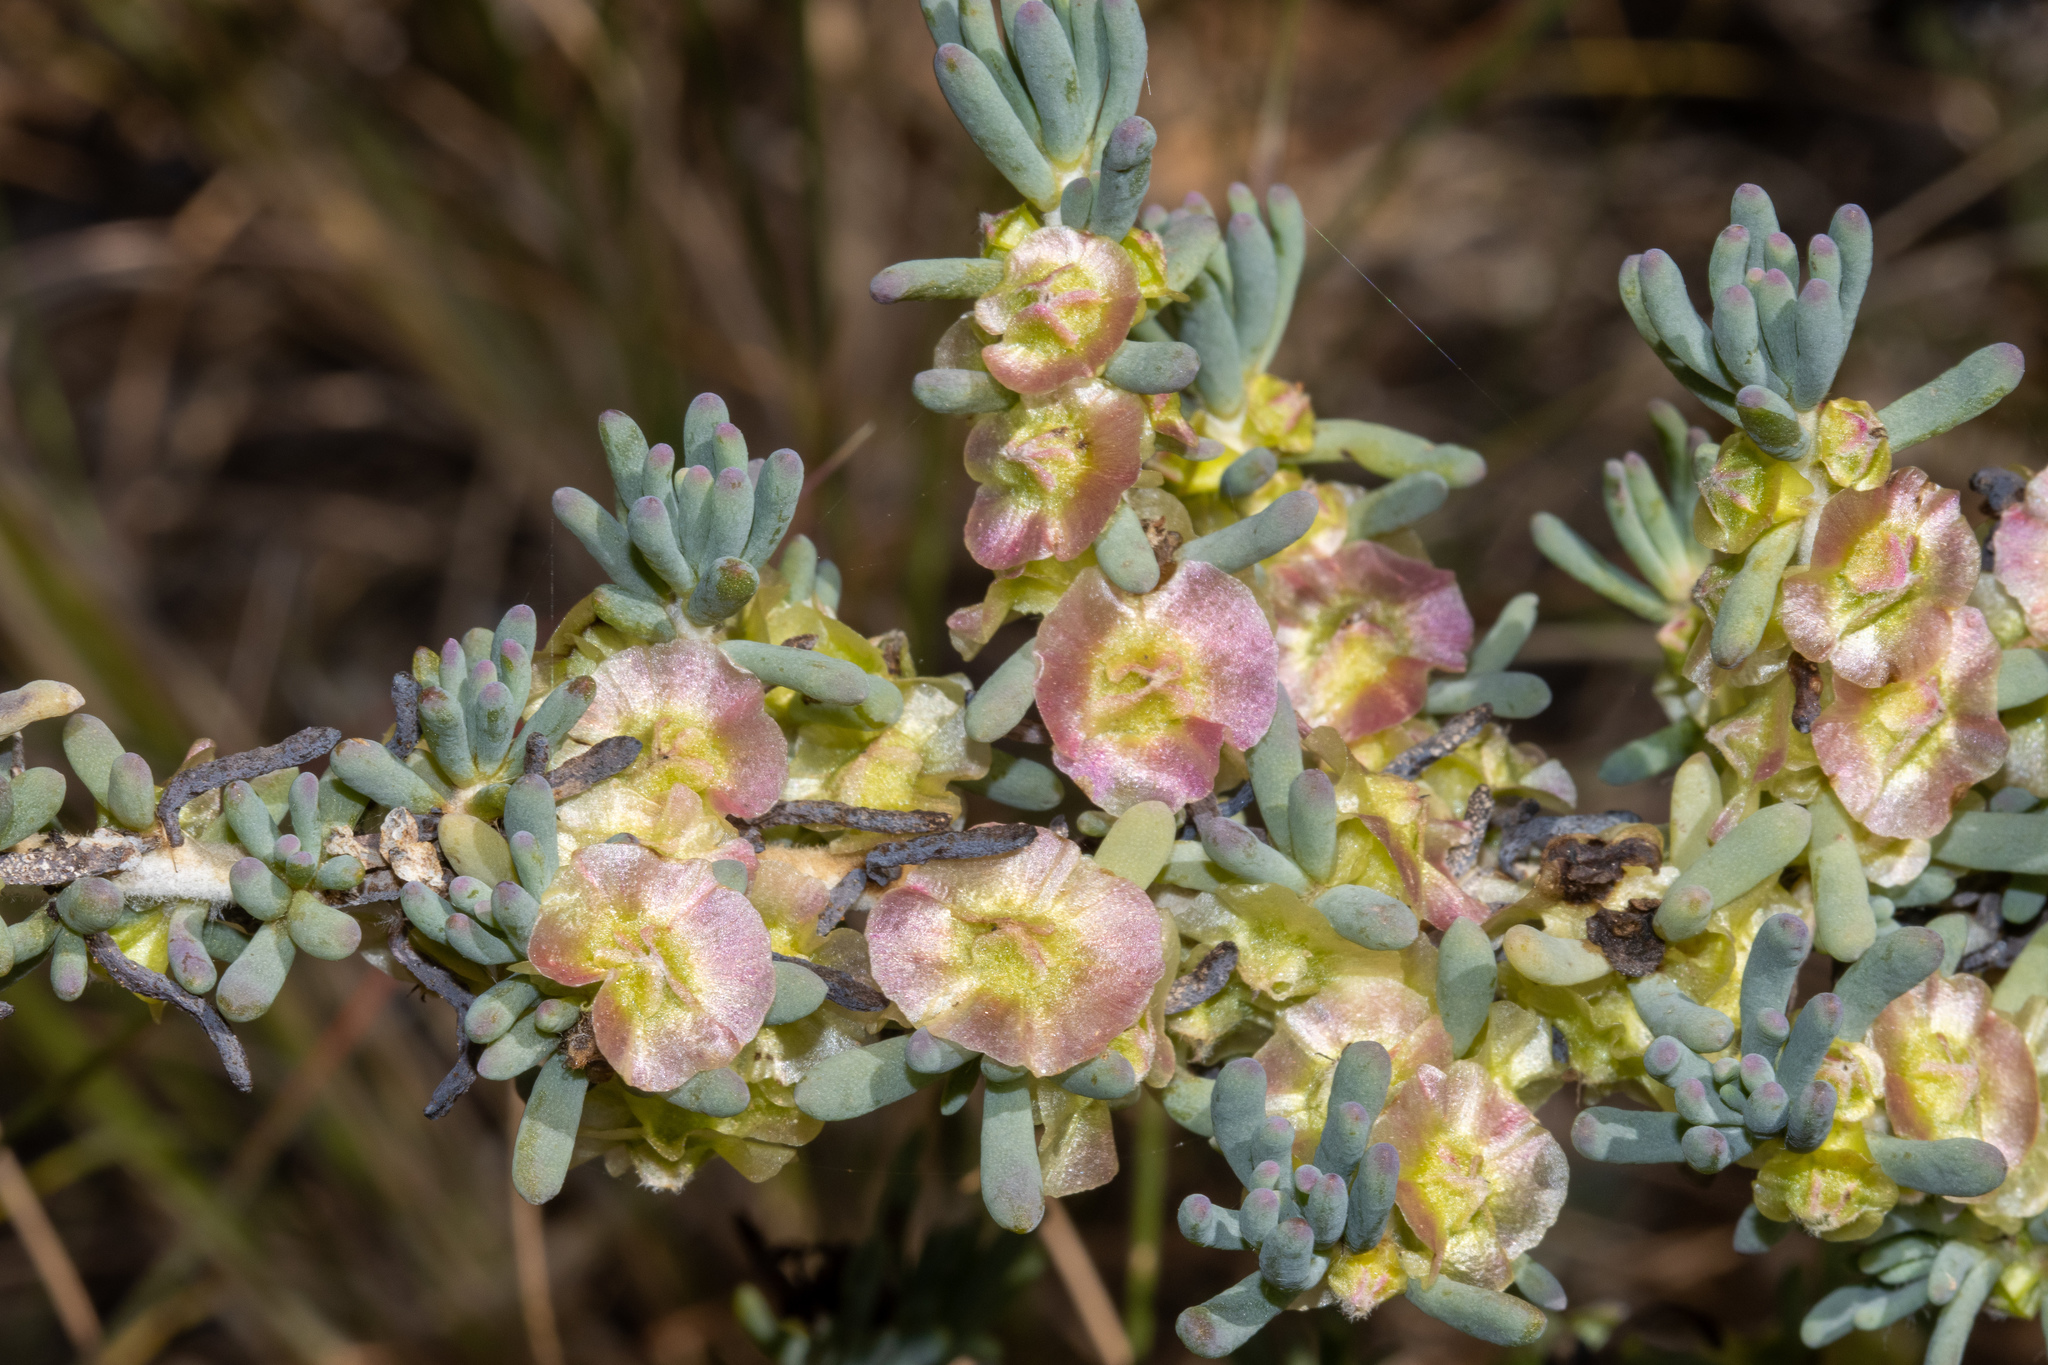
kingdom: Plantae
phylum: Tracheophyta
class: Magnoliopsida
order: Caryophyllales
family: Amaranthaceae
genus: Maireana
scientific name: Maireana pentatropis
